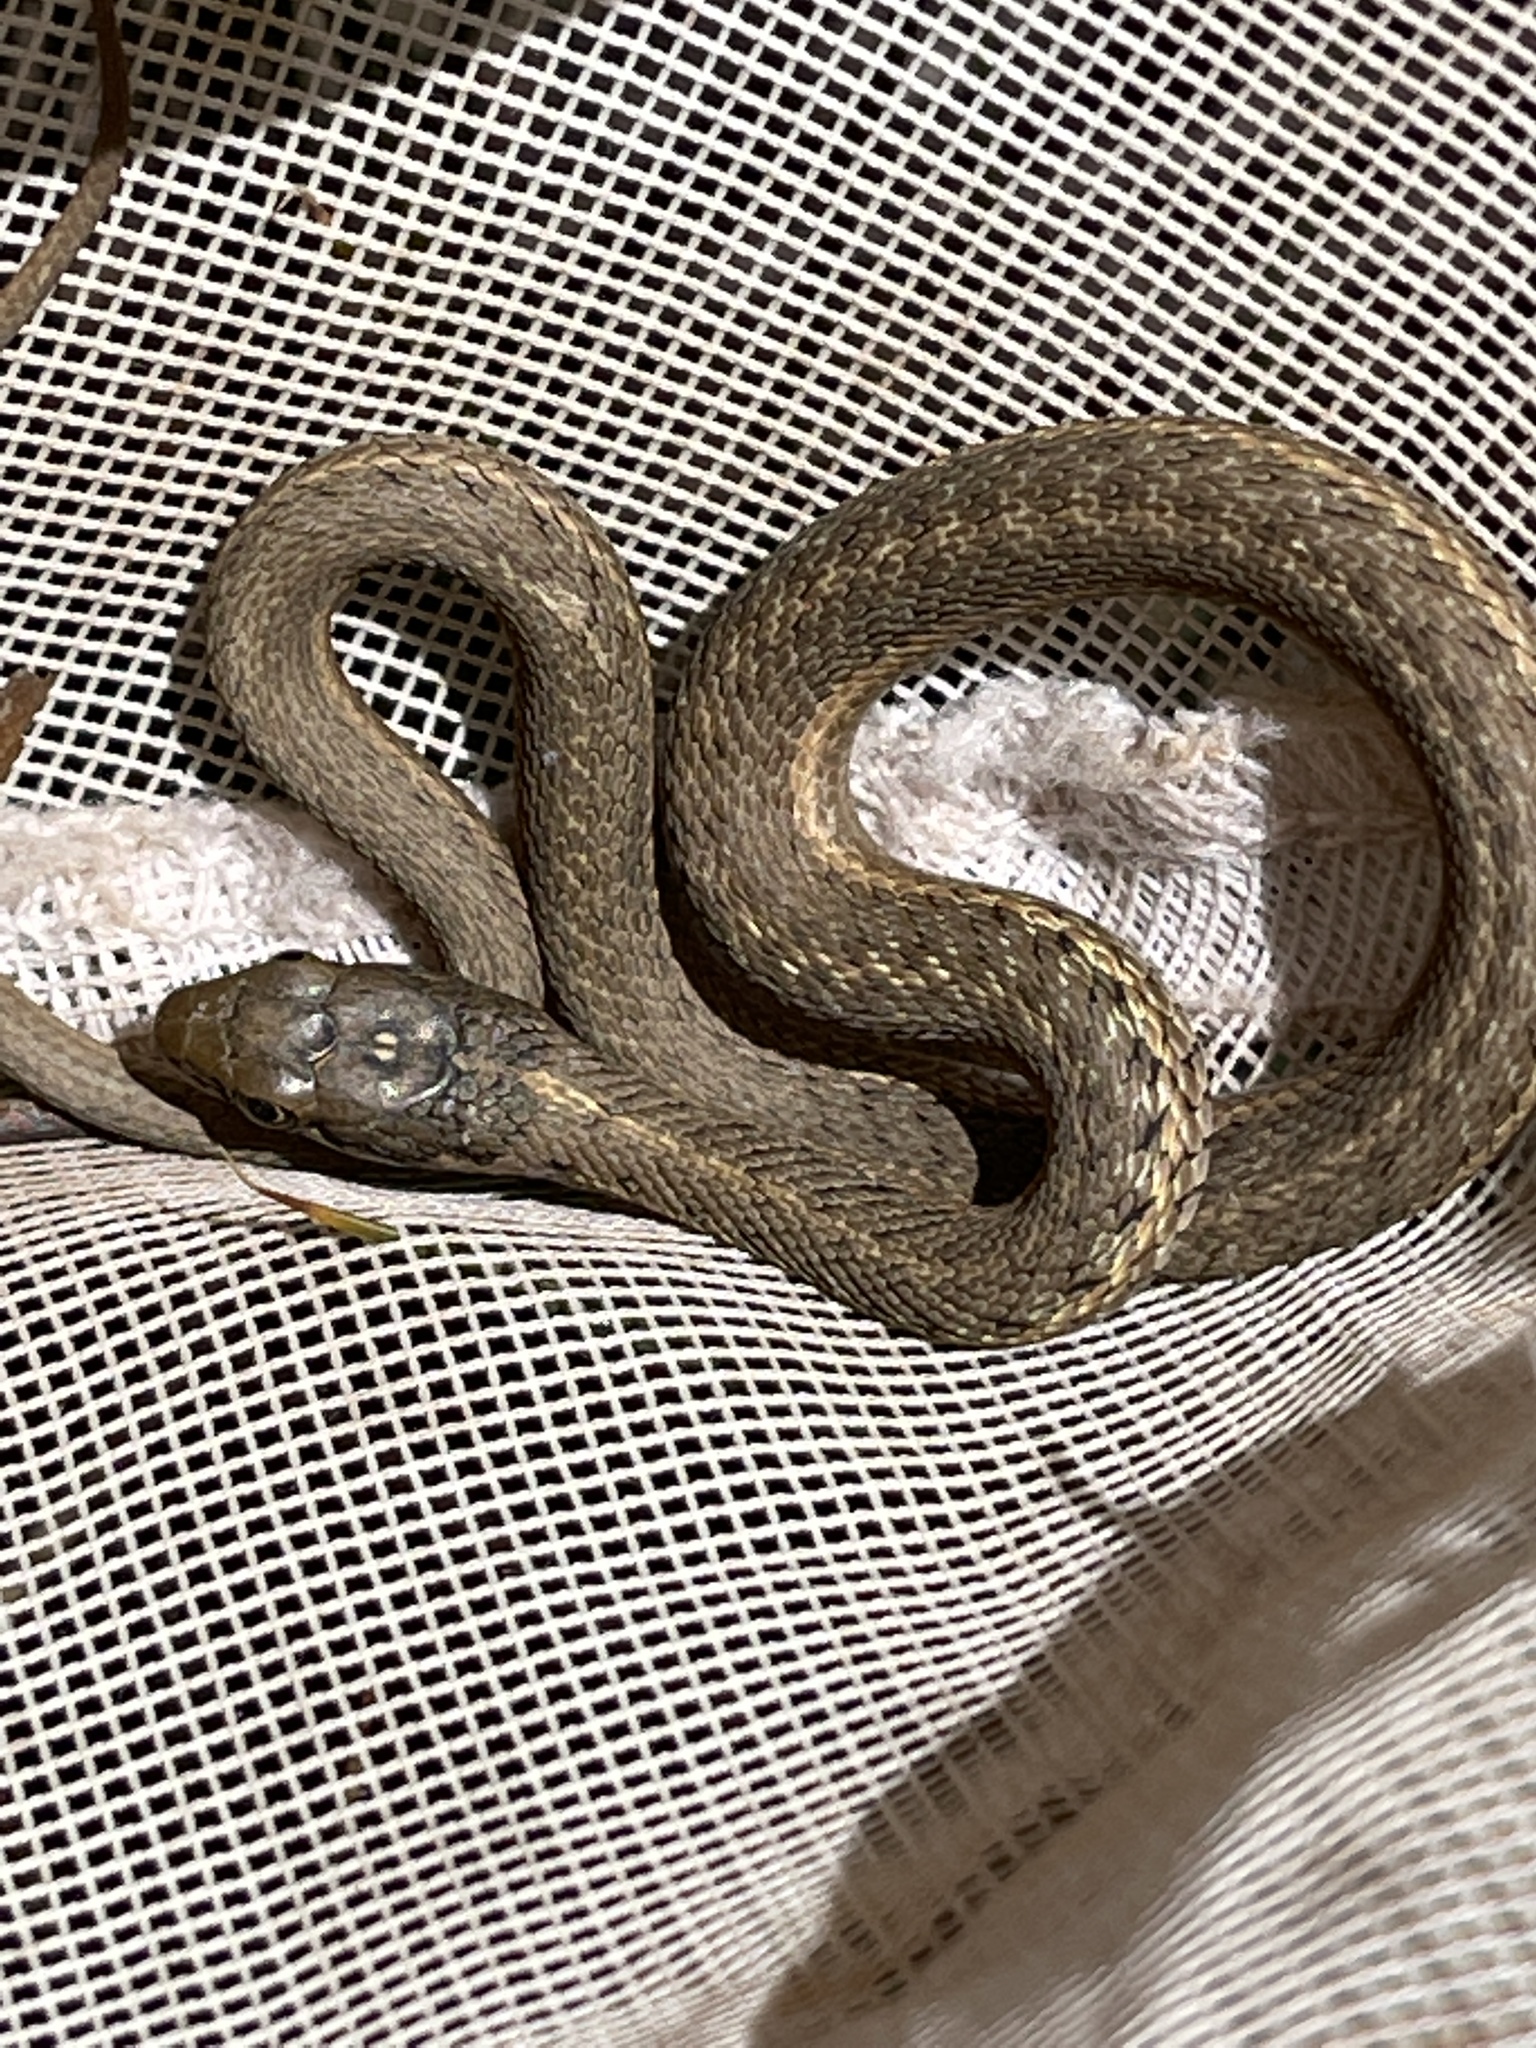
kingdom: Animalia
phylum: Chordata
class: Squamata
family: Colubridae
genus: Thamnophis
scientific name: Thamnophis elegans
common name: Western terrestrial garter snake
